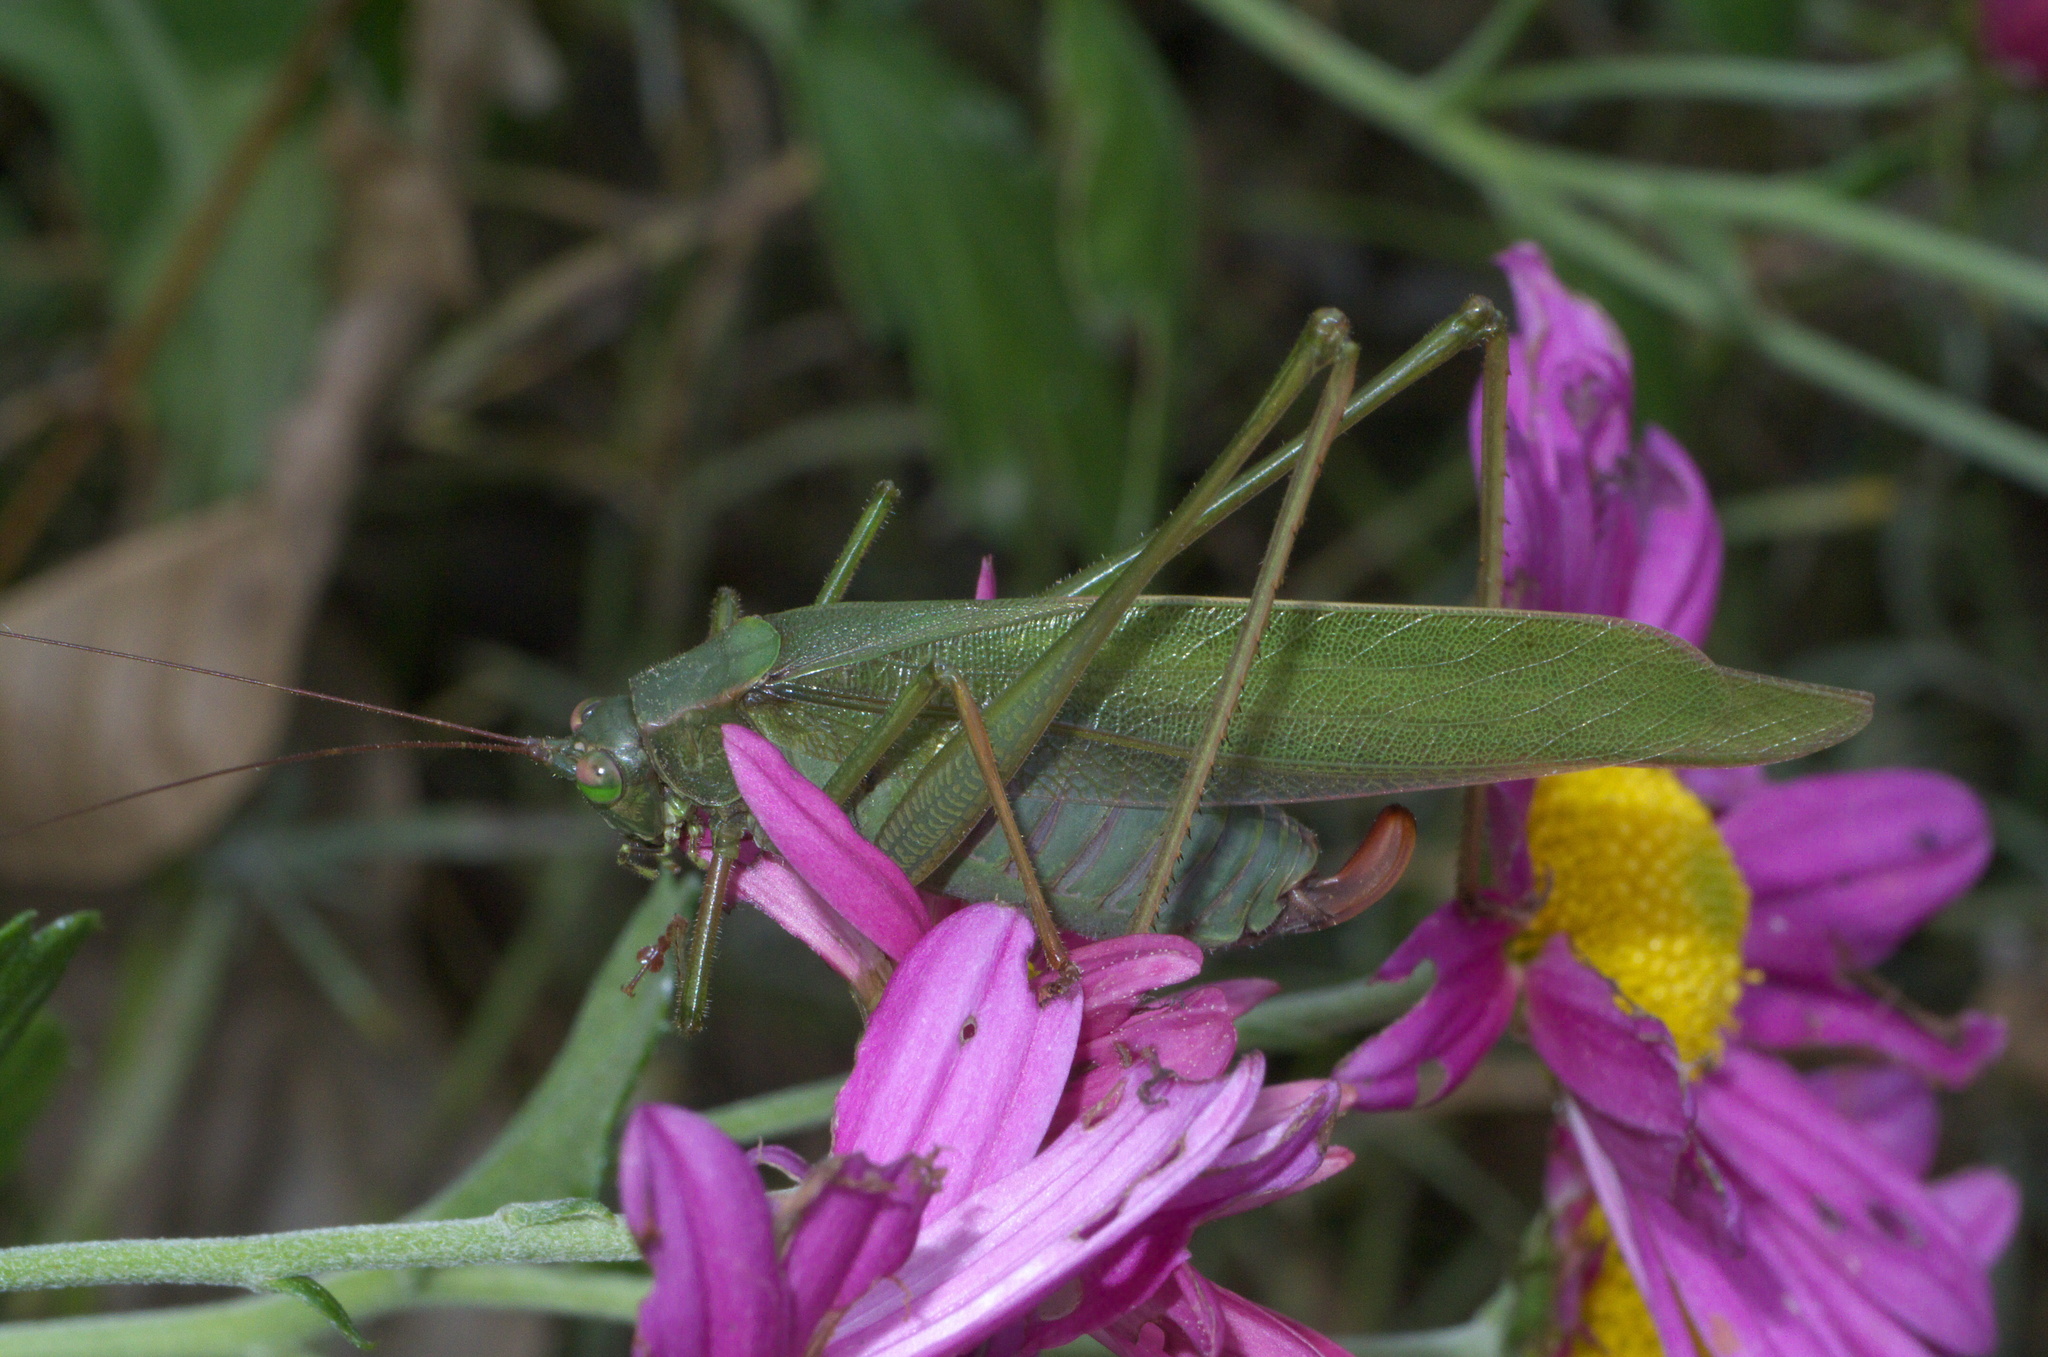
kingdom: Animalia
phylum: Arthropoda
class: Insecta
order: Orthoptera
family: Tettigoniidae
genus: Scudderia
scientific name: Scudderia furcata
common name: Fork-tailed bush katydid
